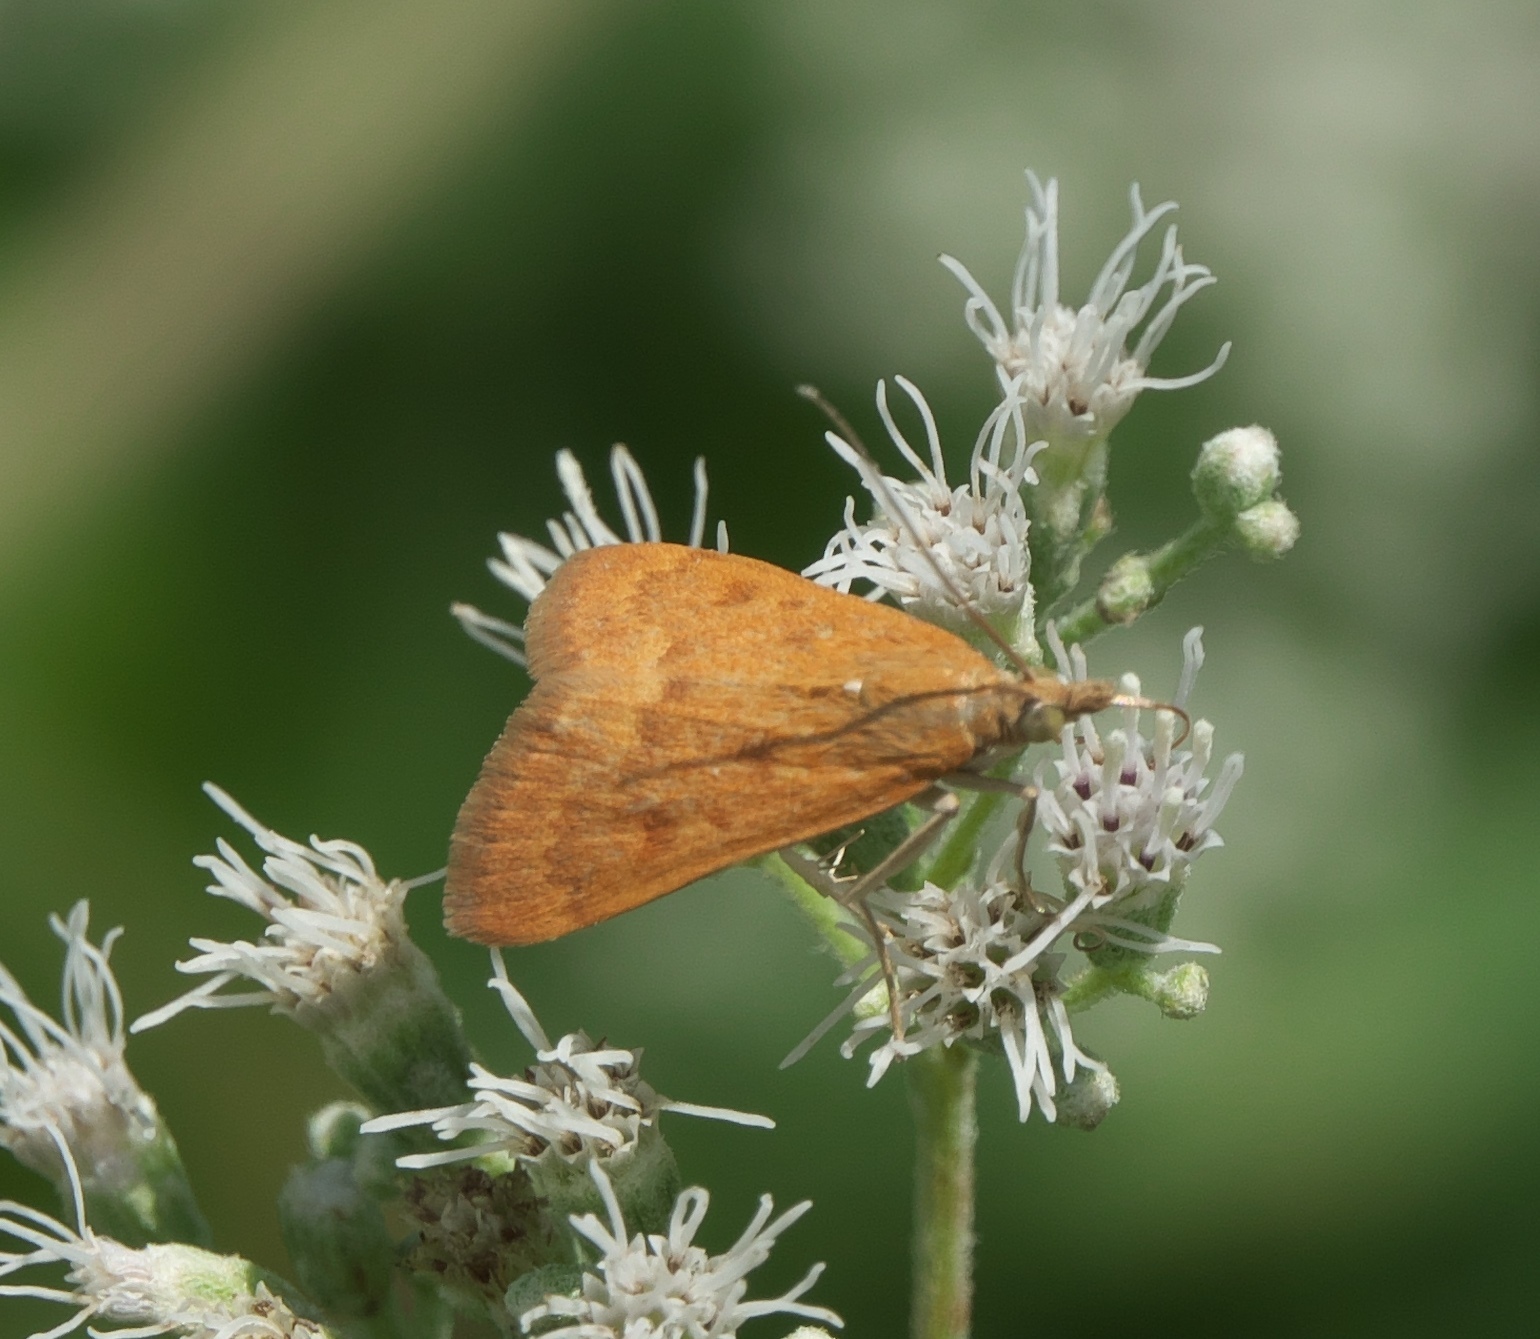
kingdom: Animalia
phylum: Arthropoda
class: Insecta
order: Lepidoptera
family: Crambidae
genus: Achyra
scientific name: Achyra rantalis
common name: Garden webworm
